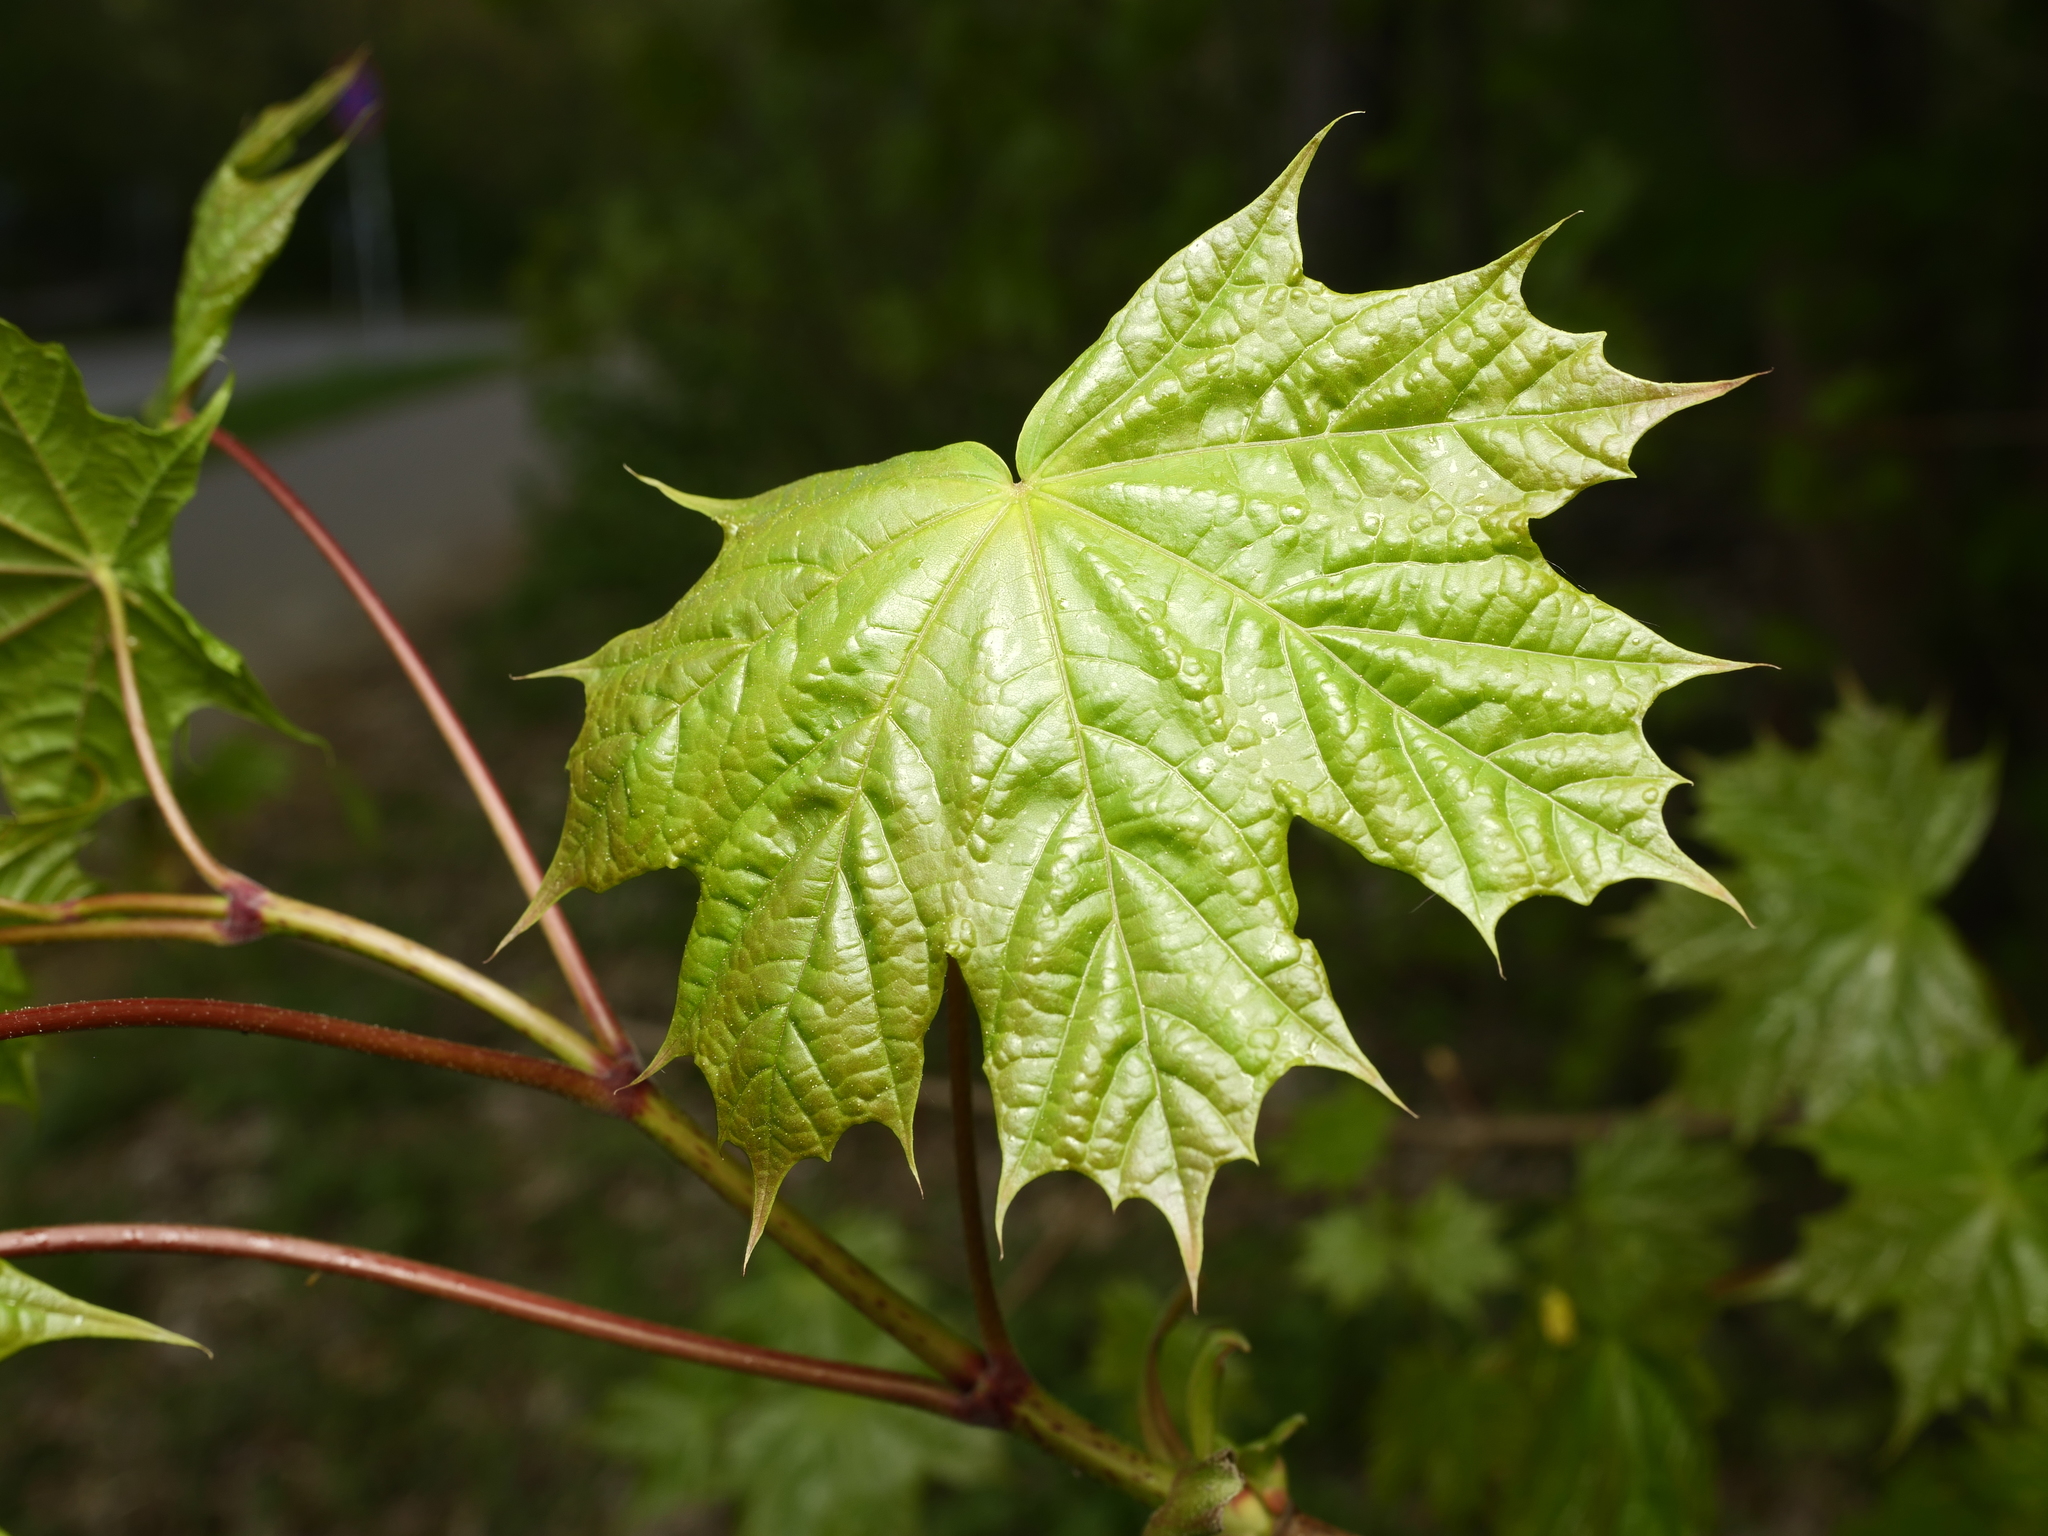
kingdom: Plantae
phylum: Tracheophyta
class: Magnoliopsida
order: Sapindales
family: Sapindaceae
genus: Acer
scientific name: Acer platanoides
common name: Norway maple
